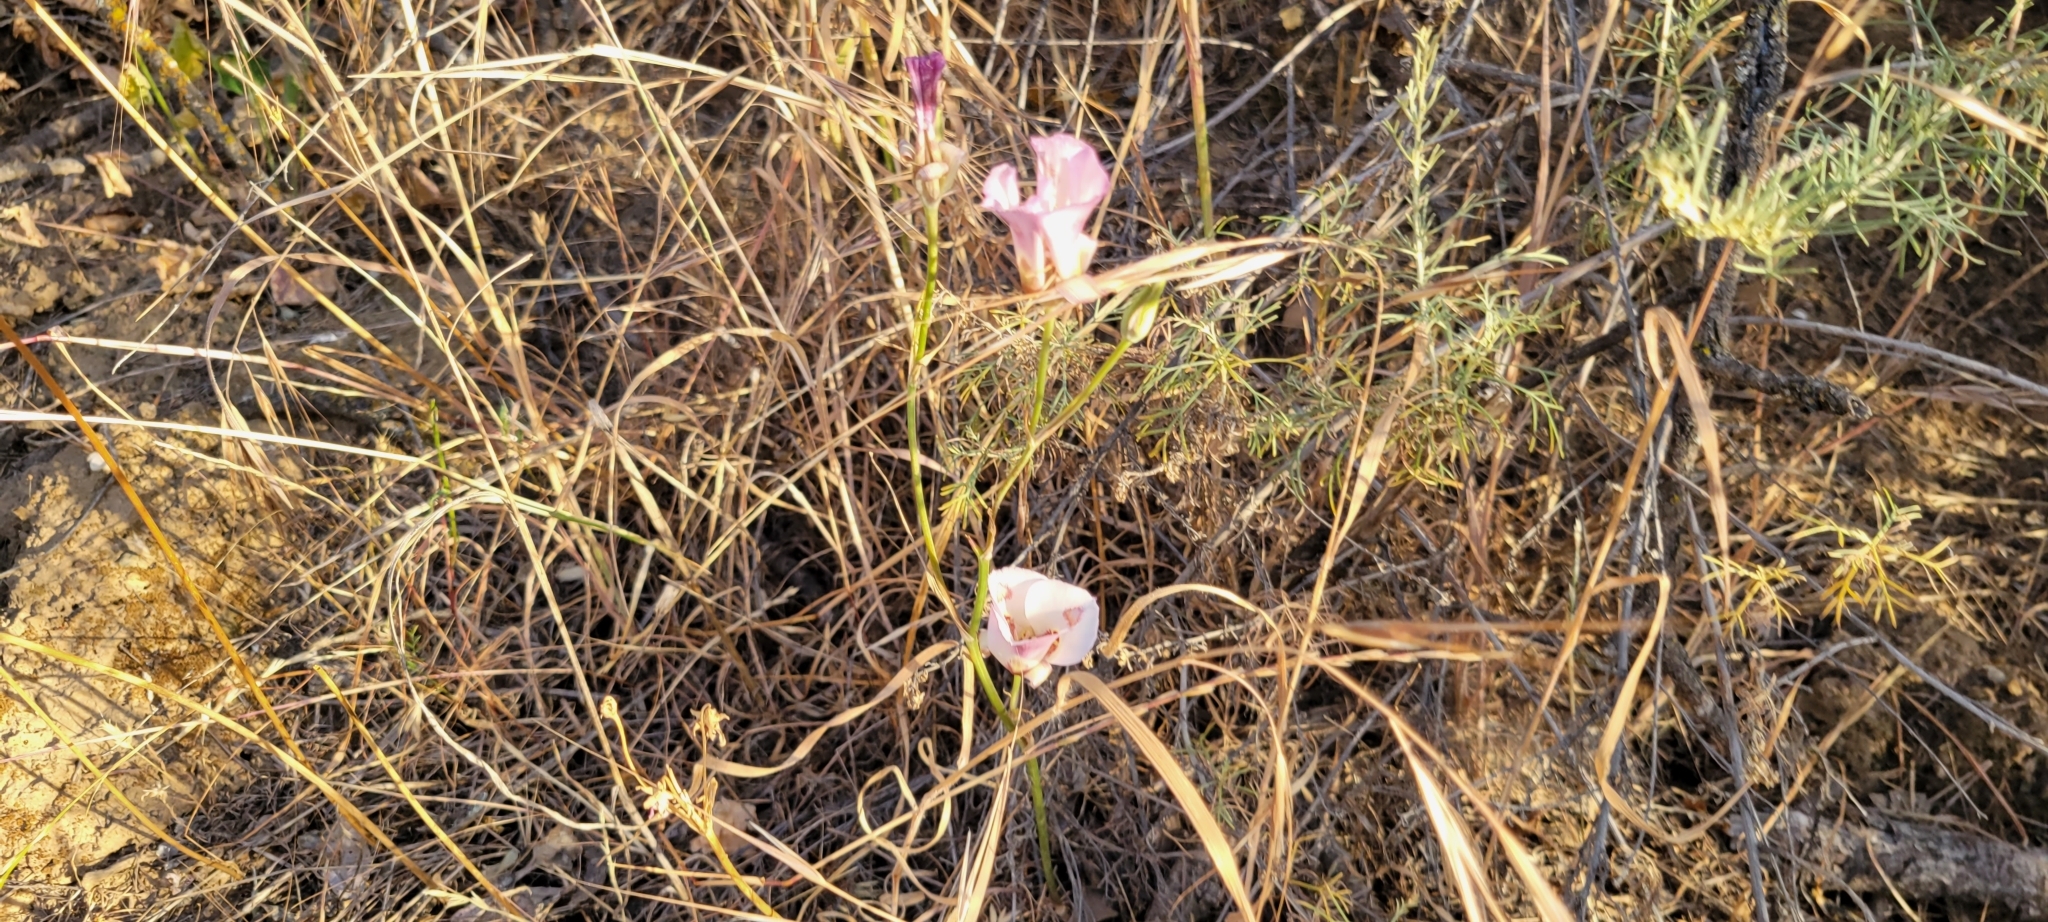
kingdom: Plantae
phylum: Tracheophyta
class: Liliopsida
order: Liliales
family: Liliaceae
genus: Calochortus
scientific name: Calochortus venustus
